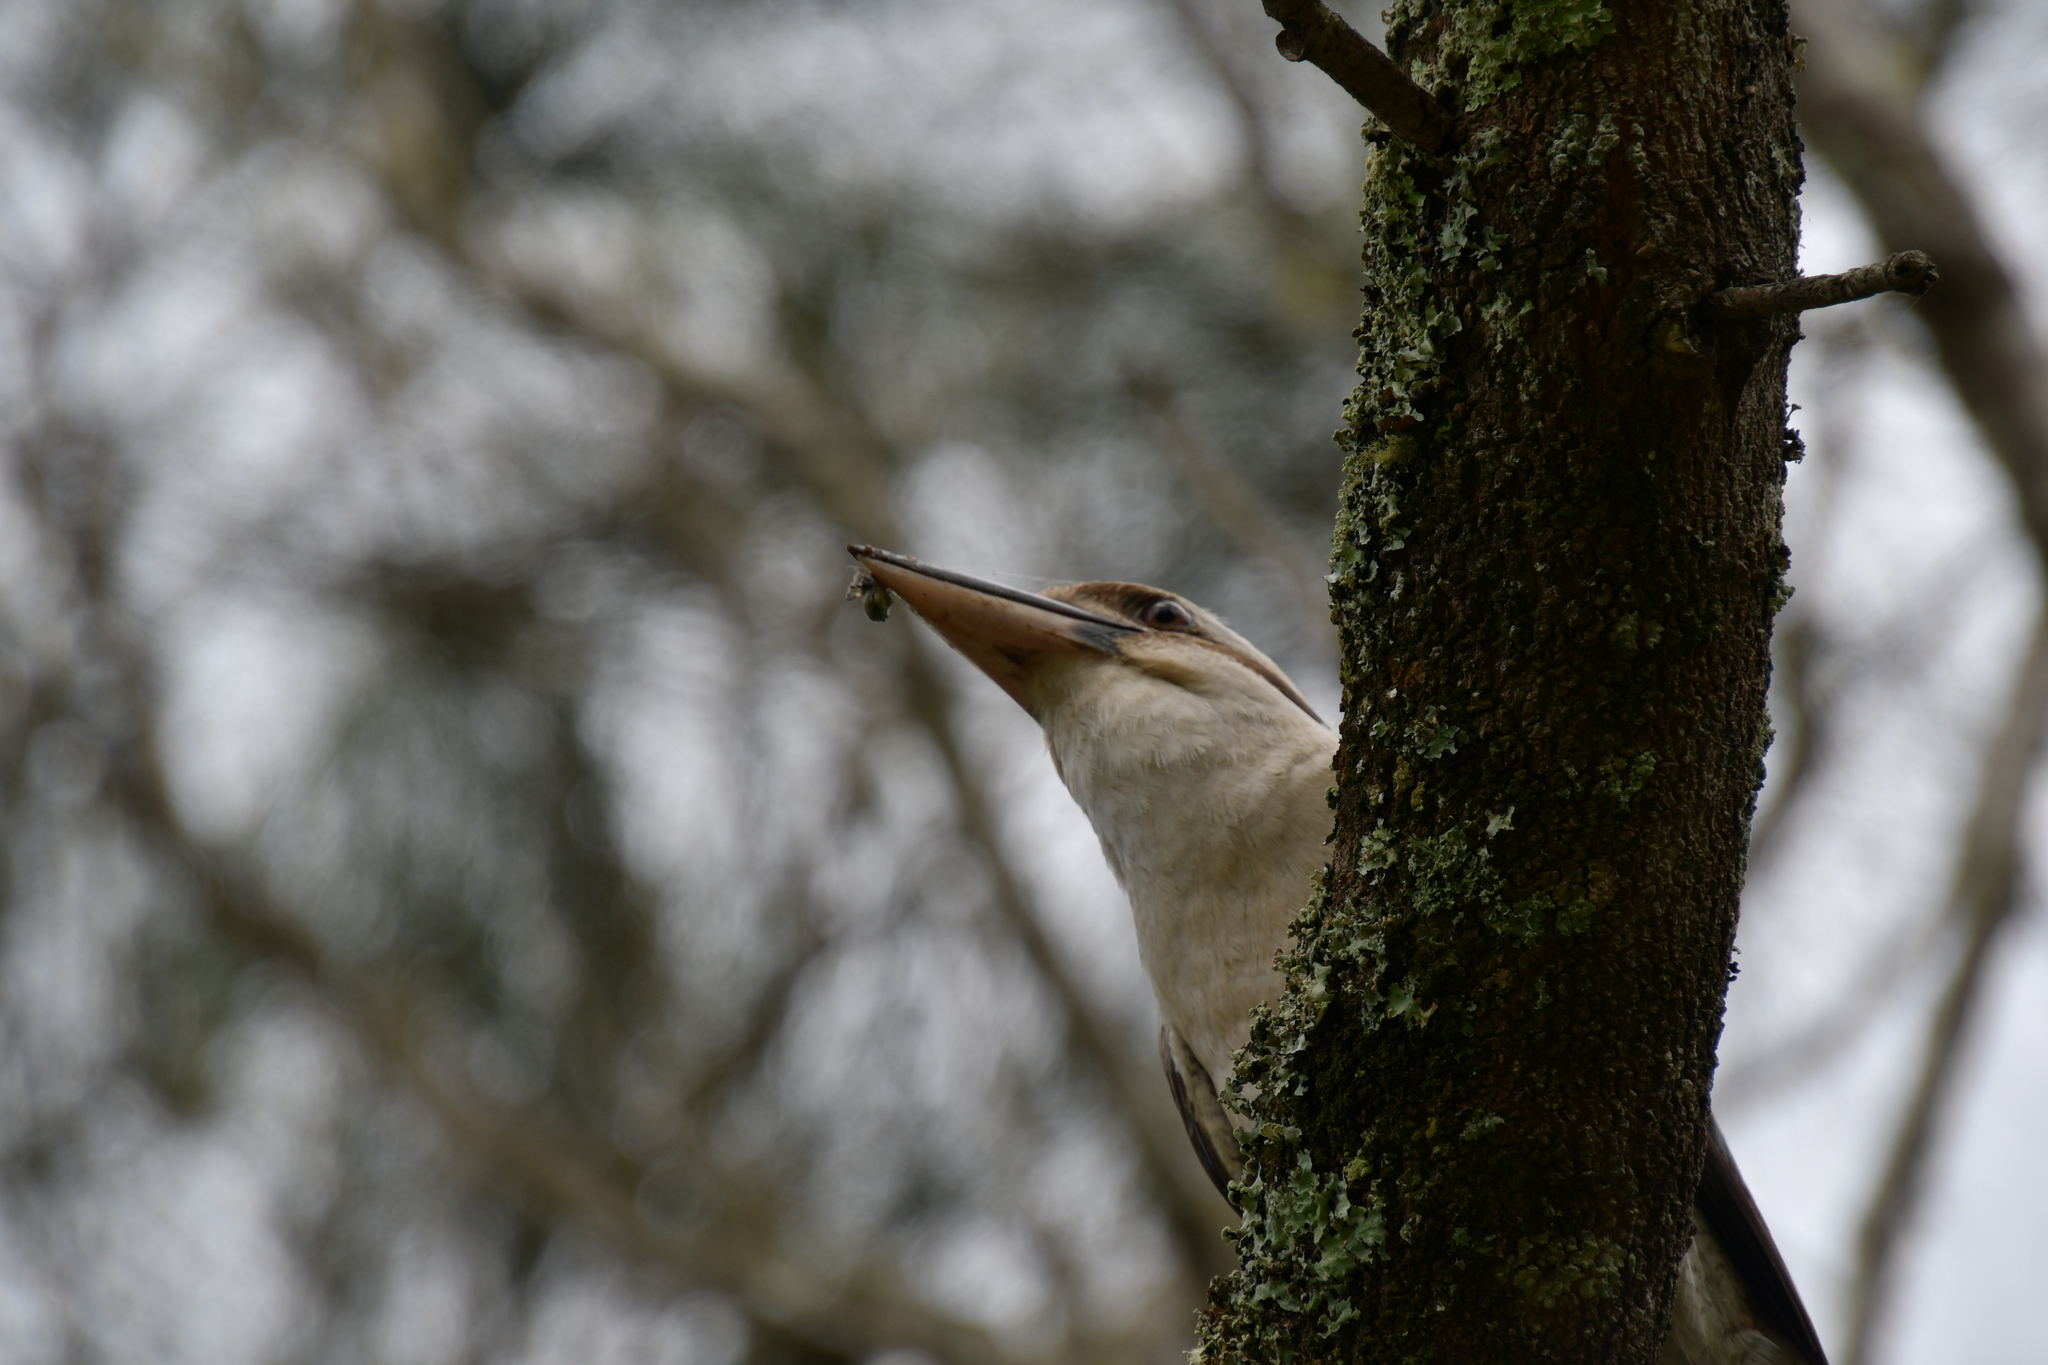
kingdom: Animalia
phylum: Chordata
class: Aves
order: Coraciiformes
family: Alcedinidae
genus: Dacelo
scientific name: Dacelo novaeguineae
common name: Laughing kookaburra
